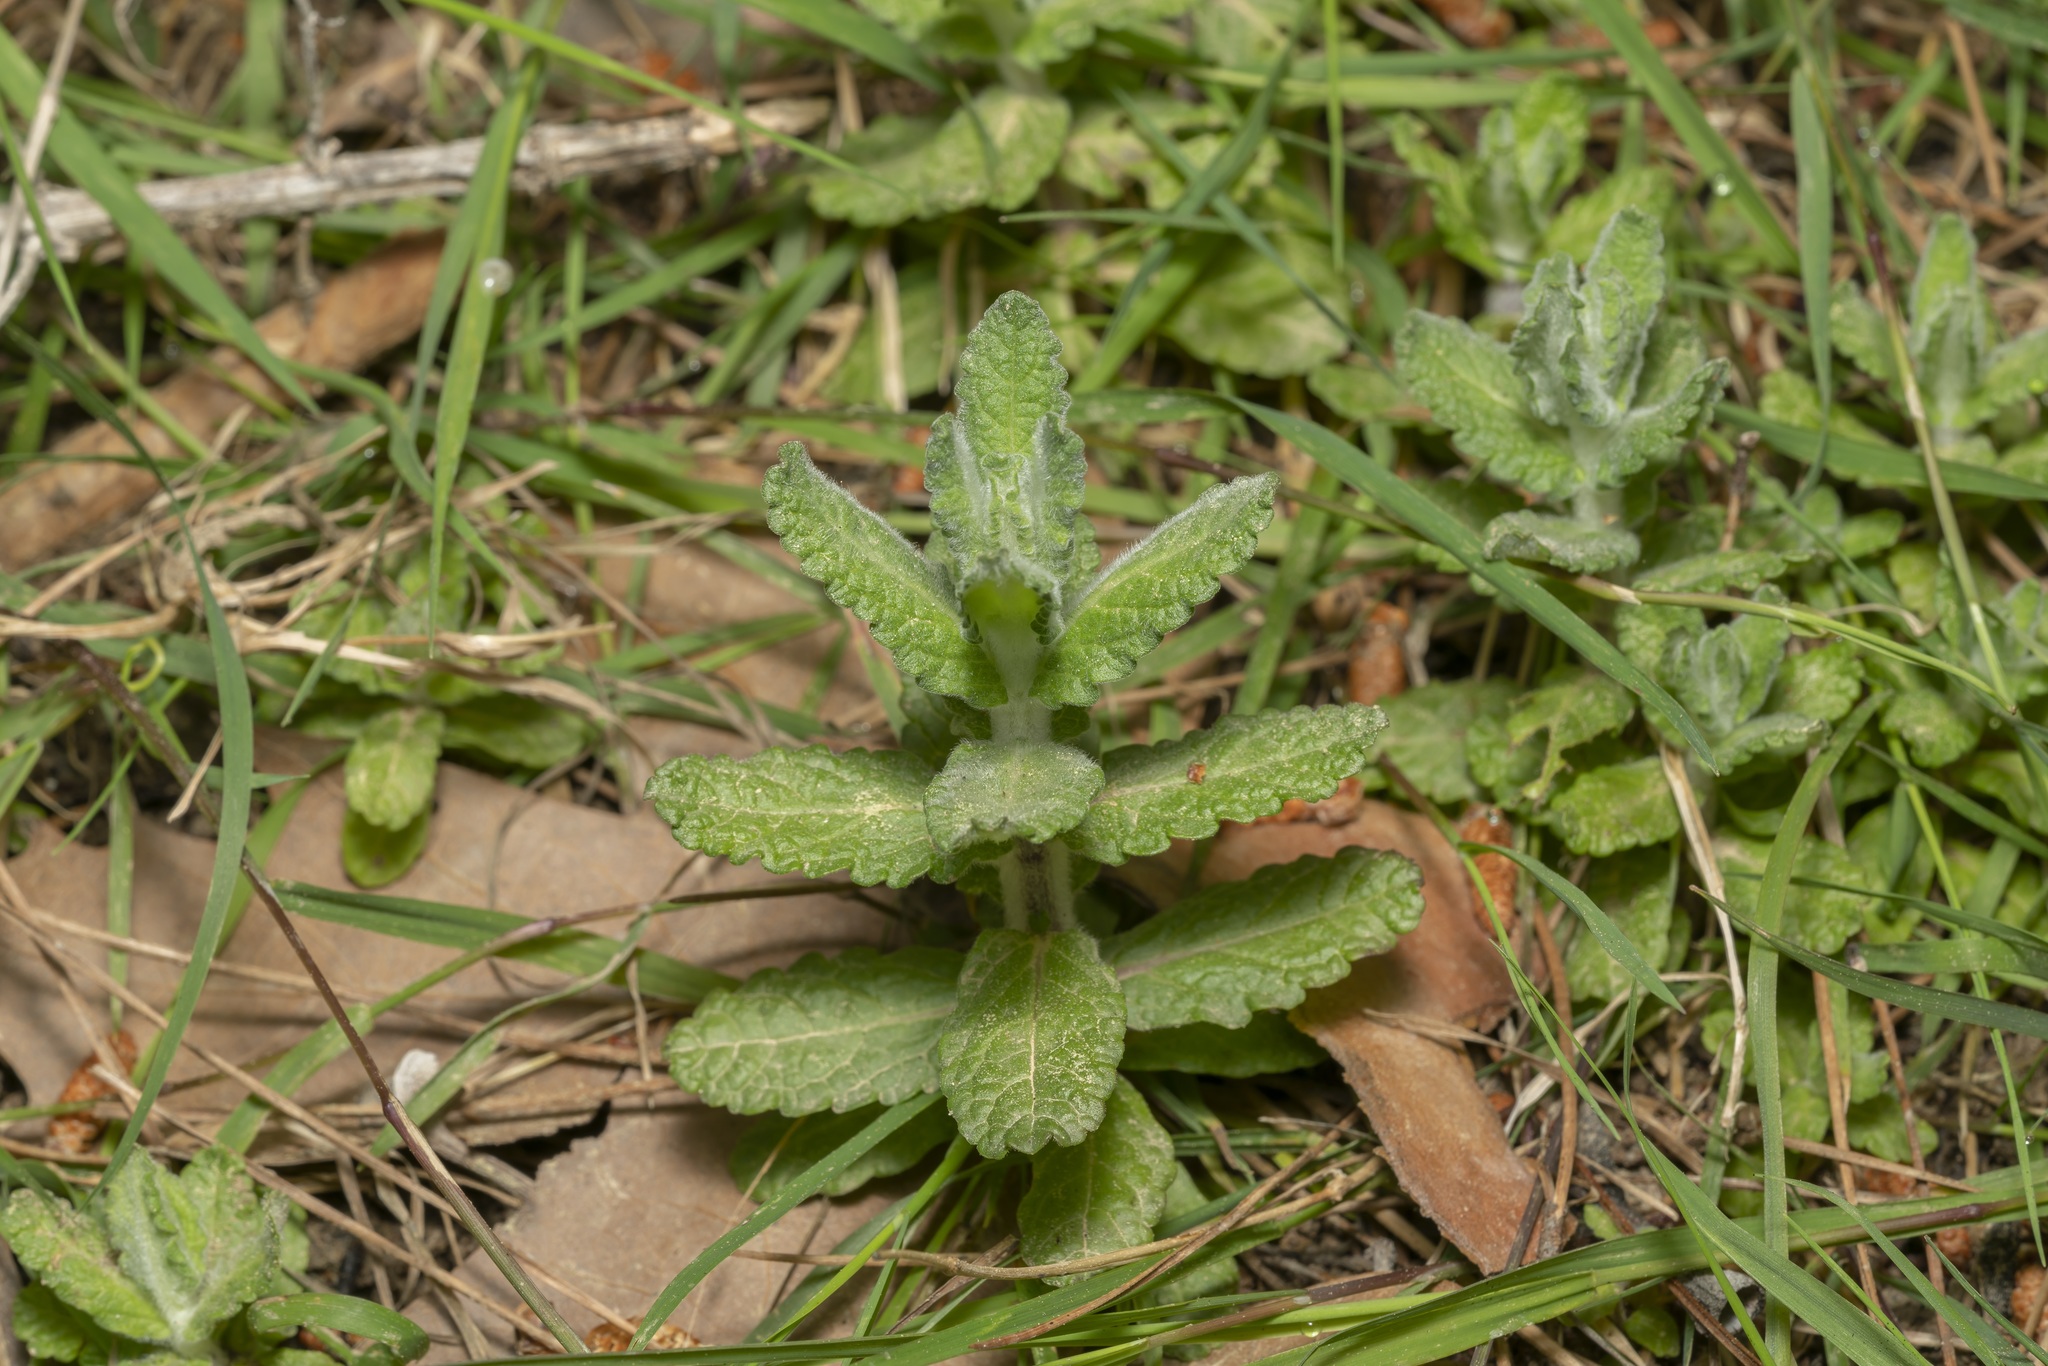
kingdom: Plantae
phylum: Tracheophyta
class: Magnoliopsida
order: Lamiales
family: Lamiaceae
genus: Teucrium
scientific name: Teucrium scordium
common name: Water germander
